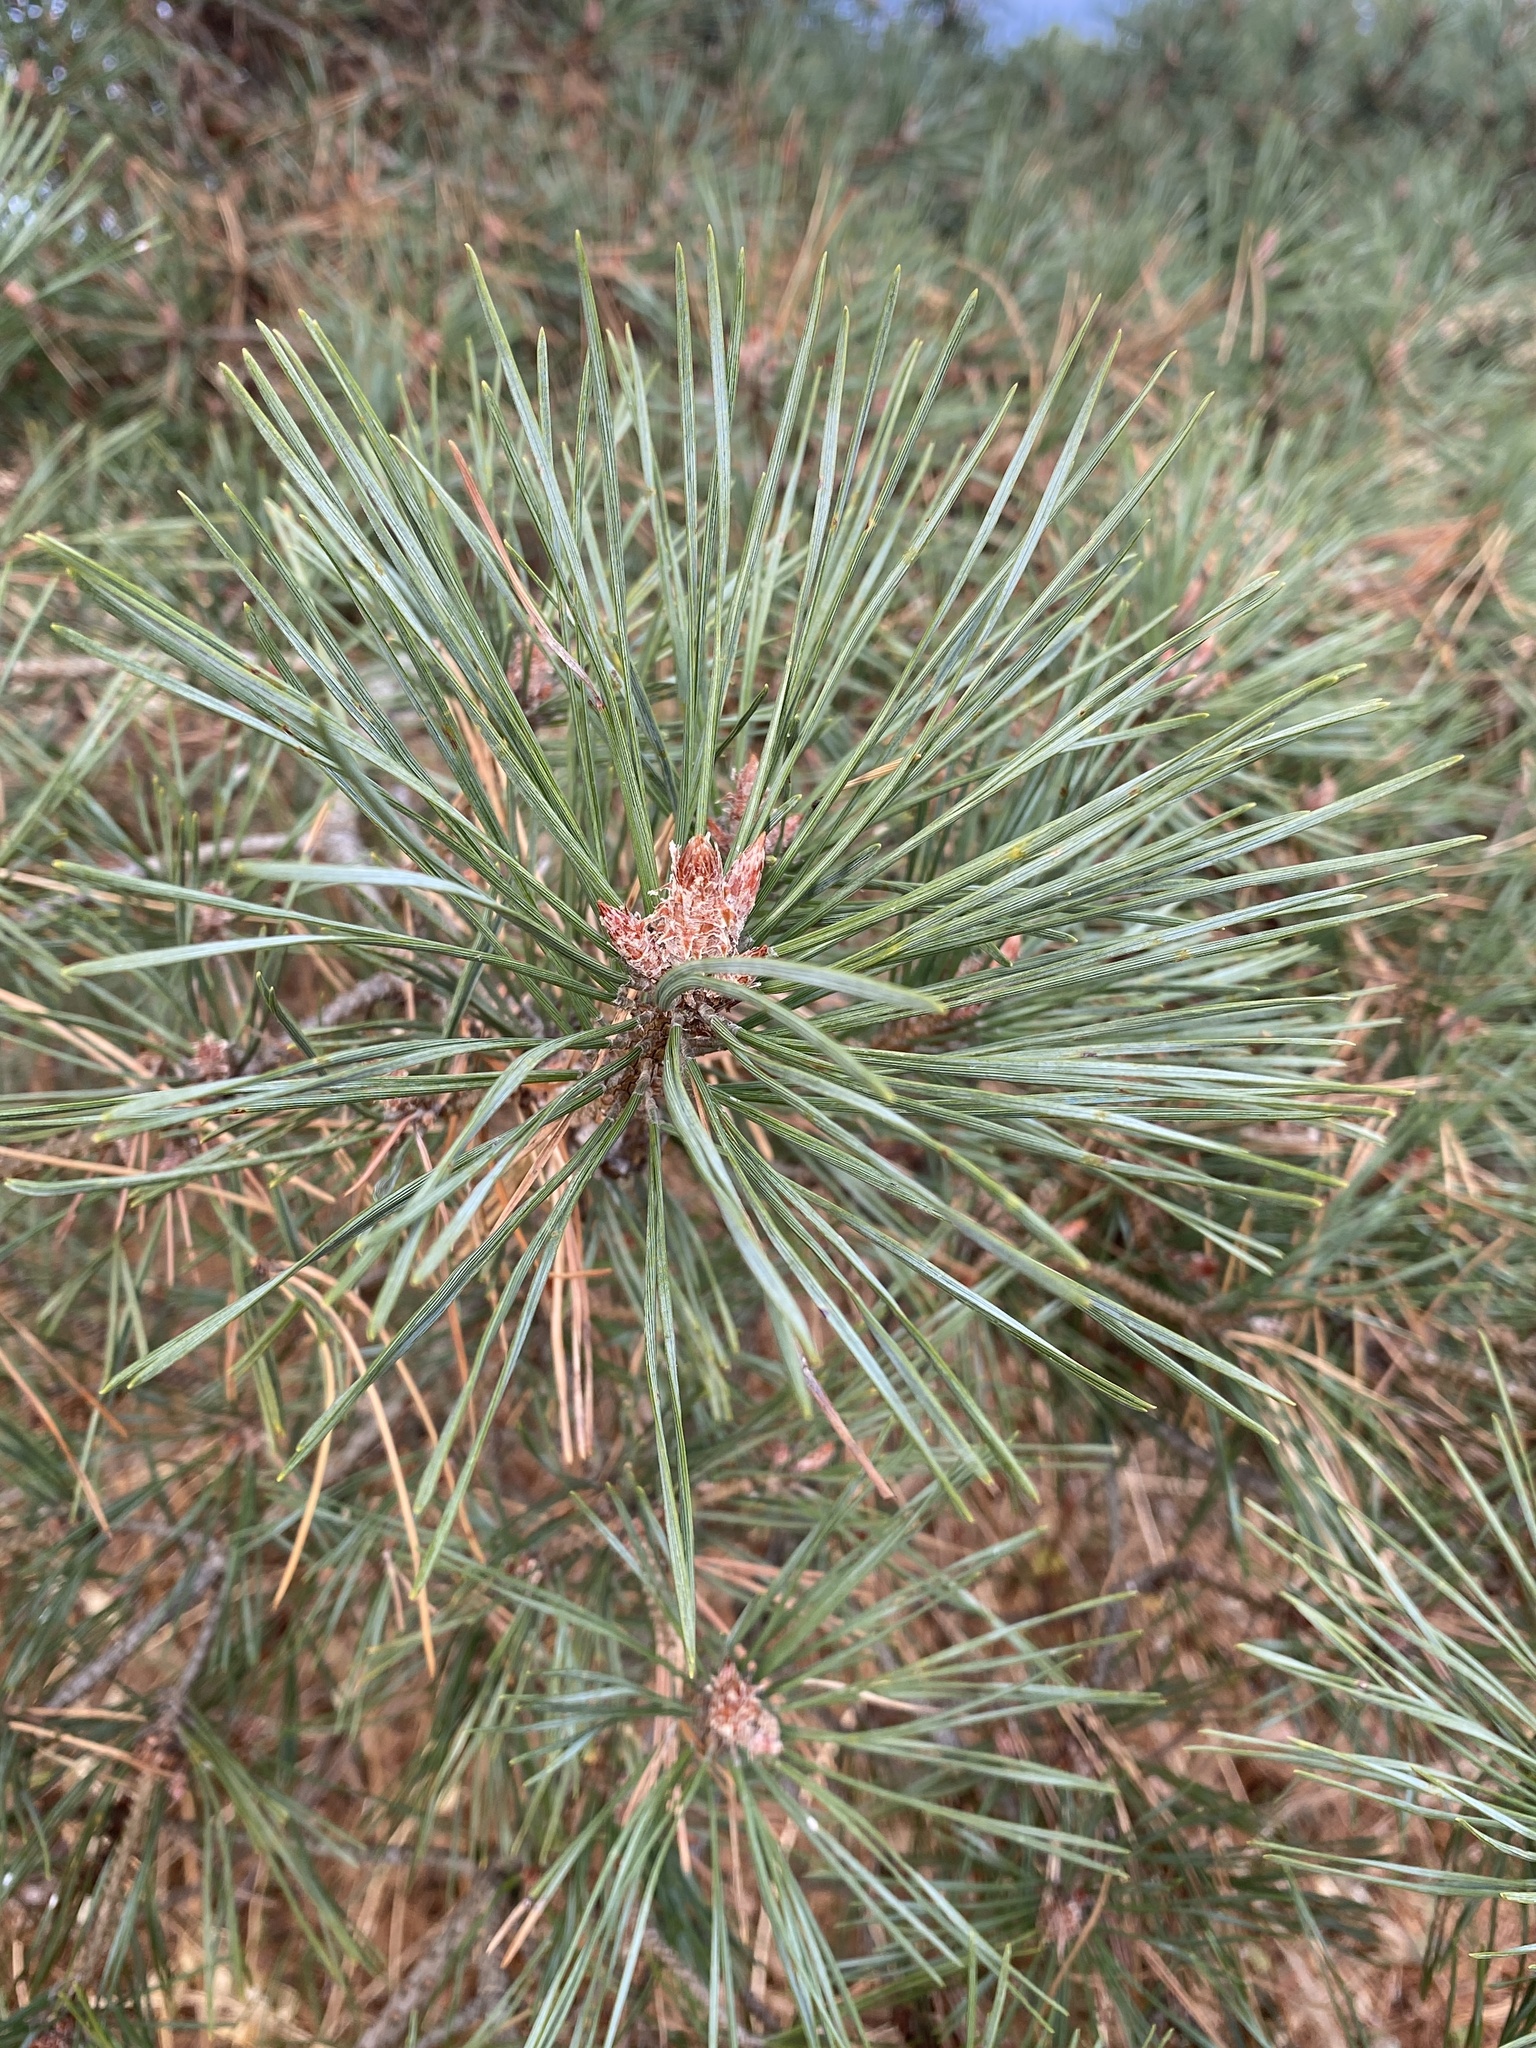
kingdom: Plantae
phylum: Tracheophyta
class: Pinopsida
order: Pinales
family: Pinaceae
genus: Pinus
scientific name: Pinus sylvestris
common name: Scots pine
